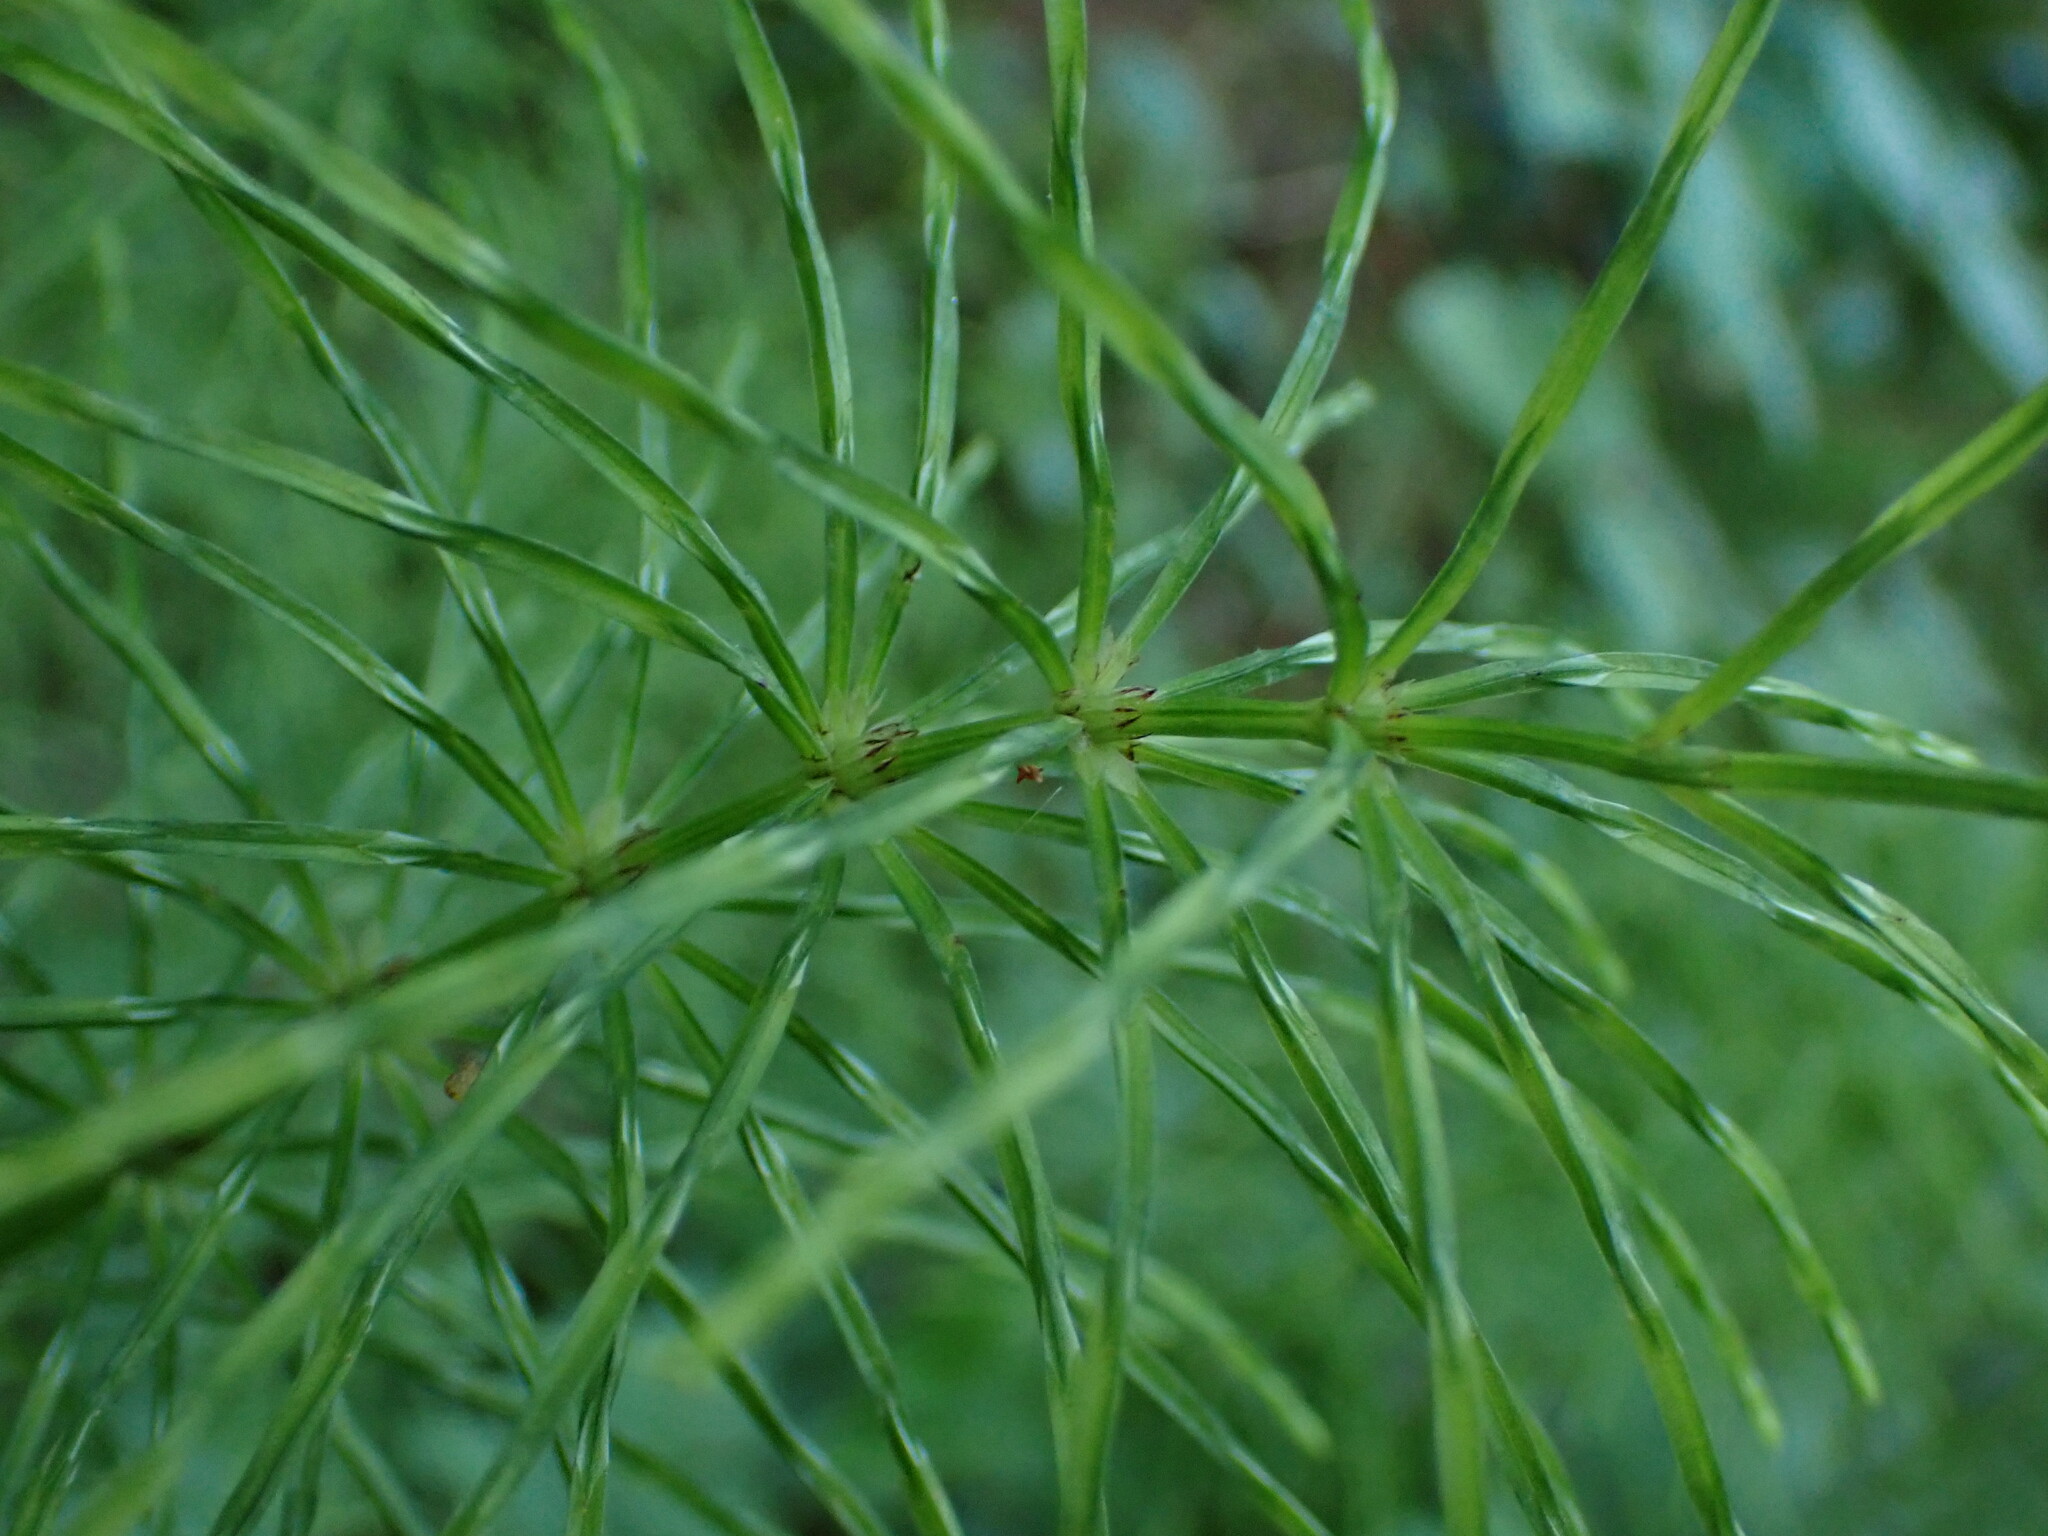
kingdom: Plantae
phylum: Tracheophyta
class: Polypodiopsida
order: Equisetales
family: Equisetaceae
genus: Equisetum
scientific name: Equisetum arvense
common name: Field horsetail
